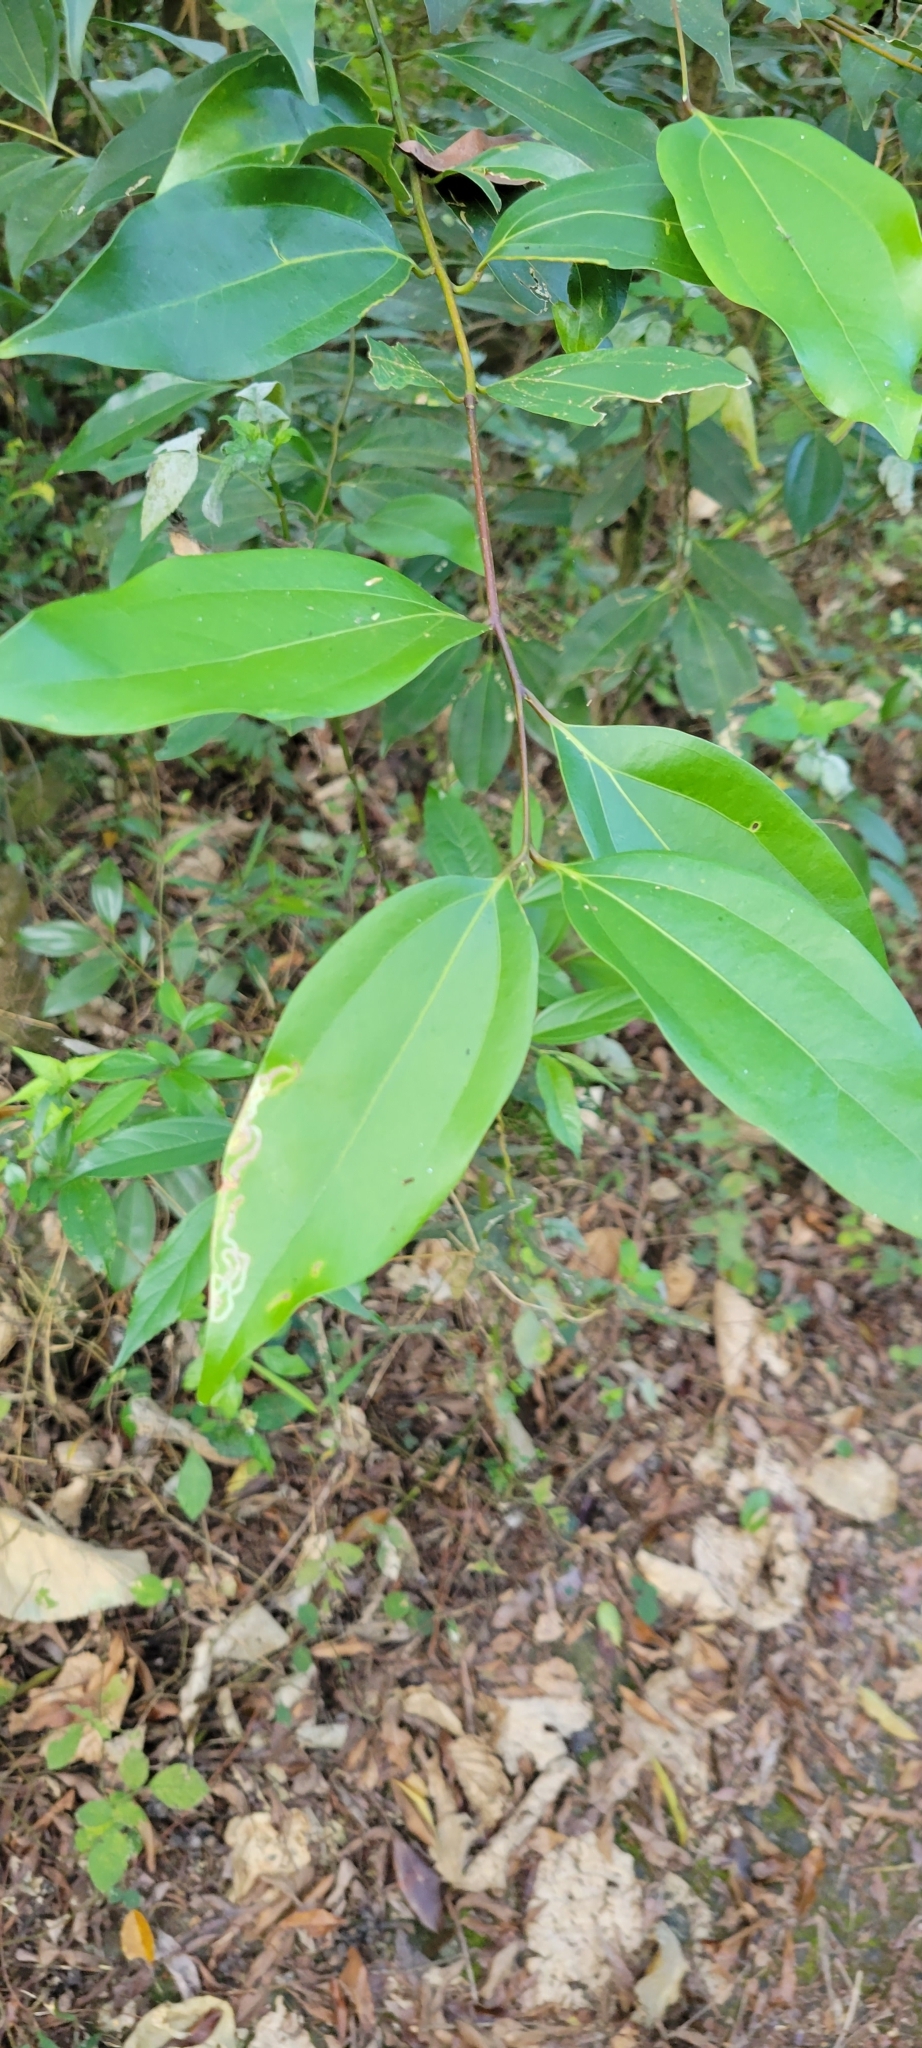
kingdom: Plantae
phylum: Tracheophyta
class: Magnoliopsida
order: Laurales
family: Lauraceae
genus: Cinnamomum
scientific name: Cinnamomum burmanni
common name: Padang cassia
